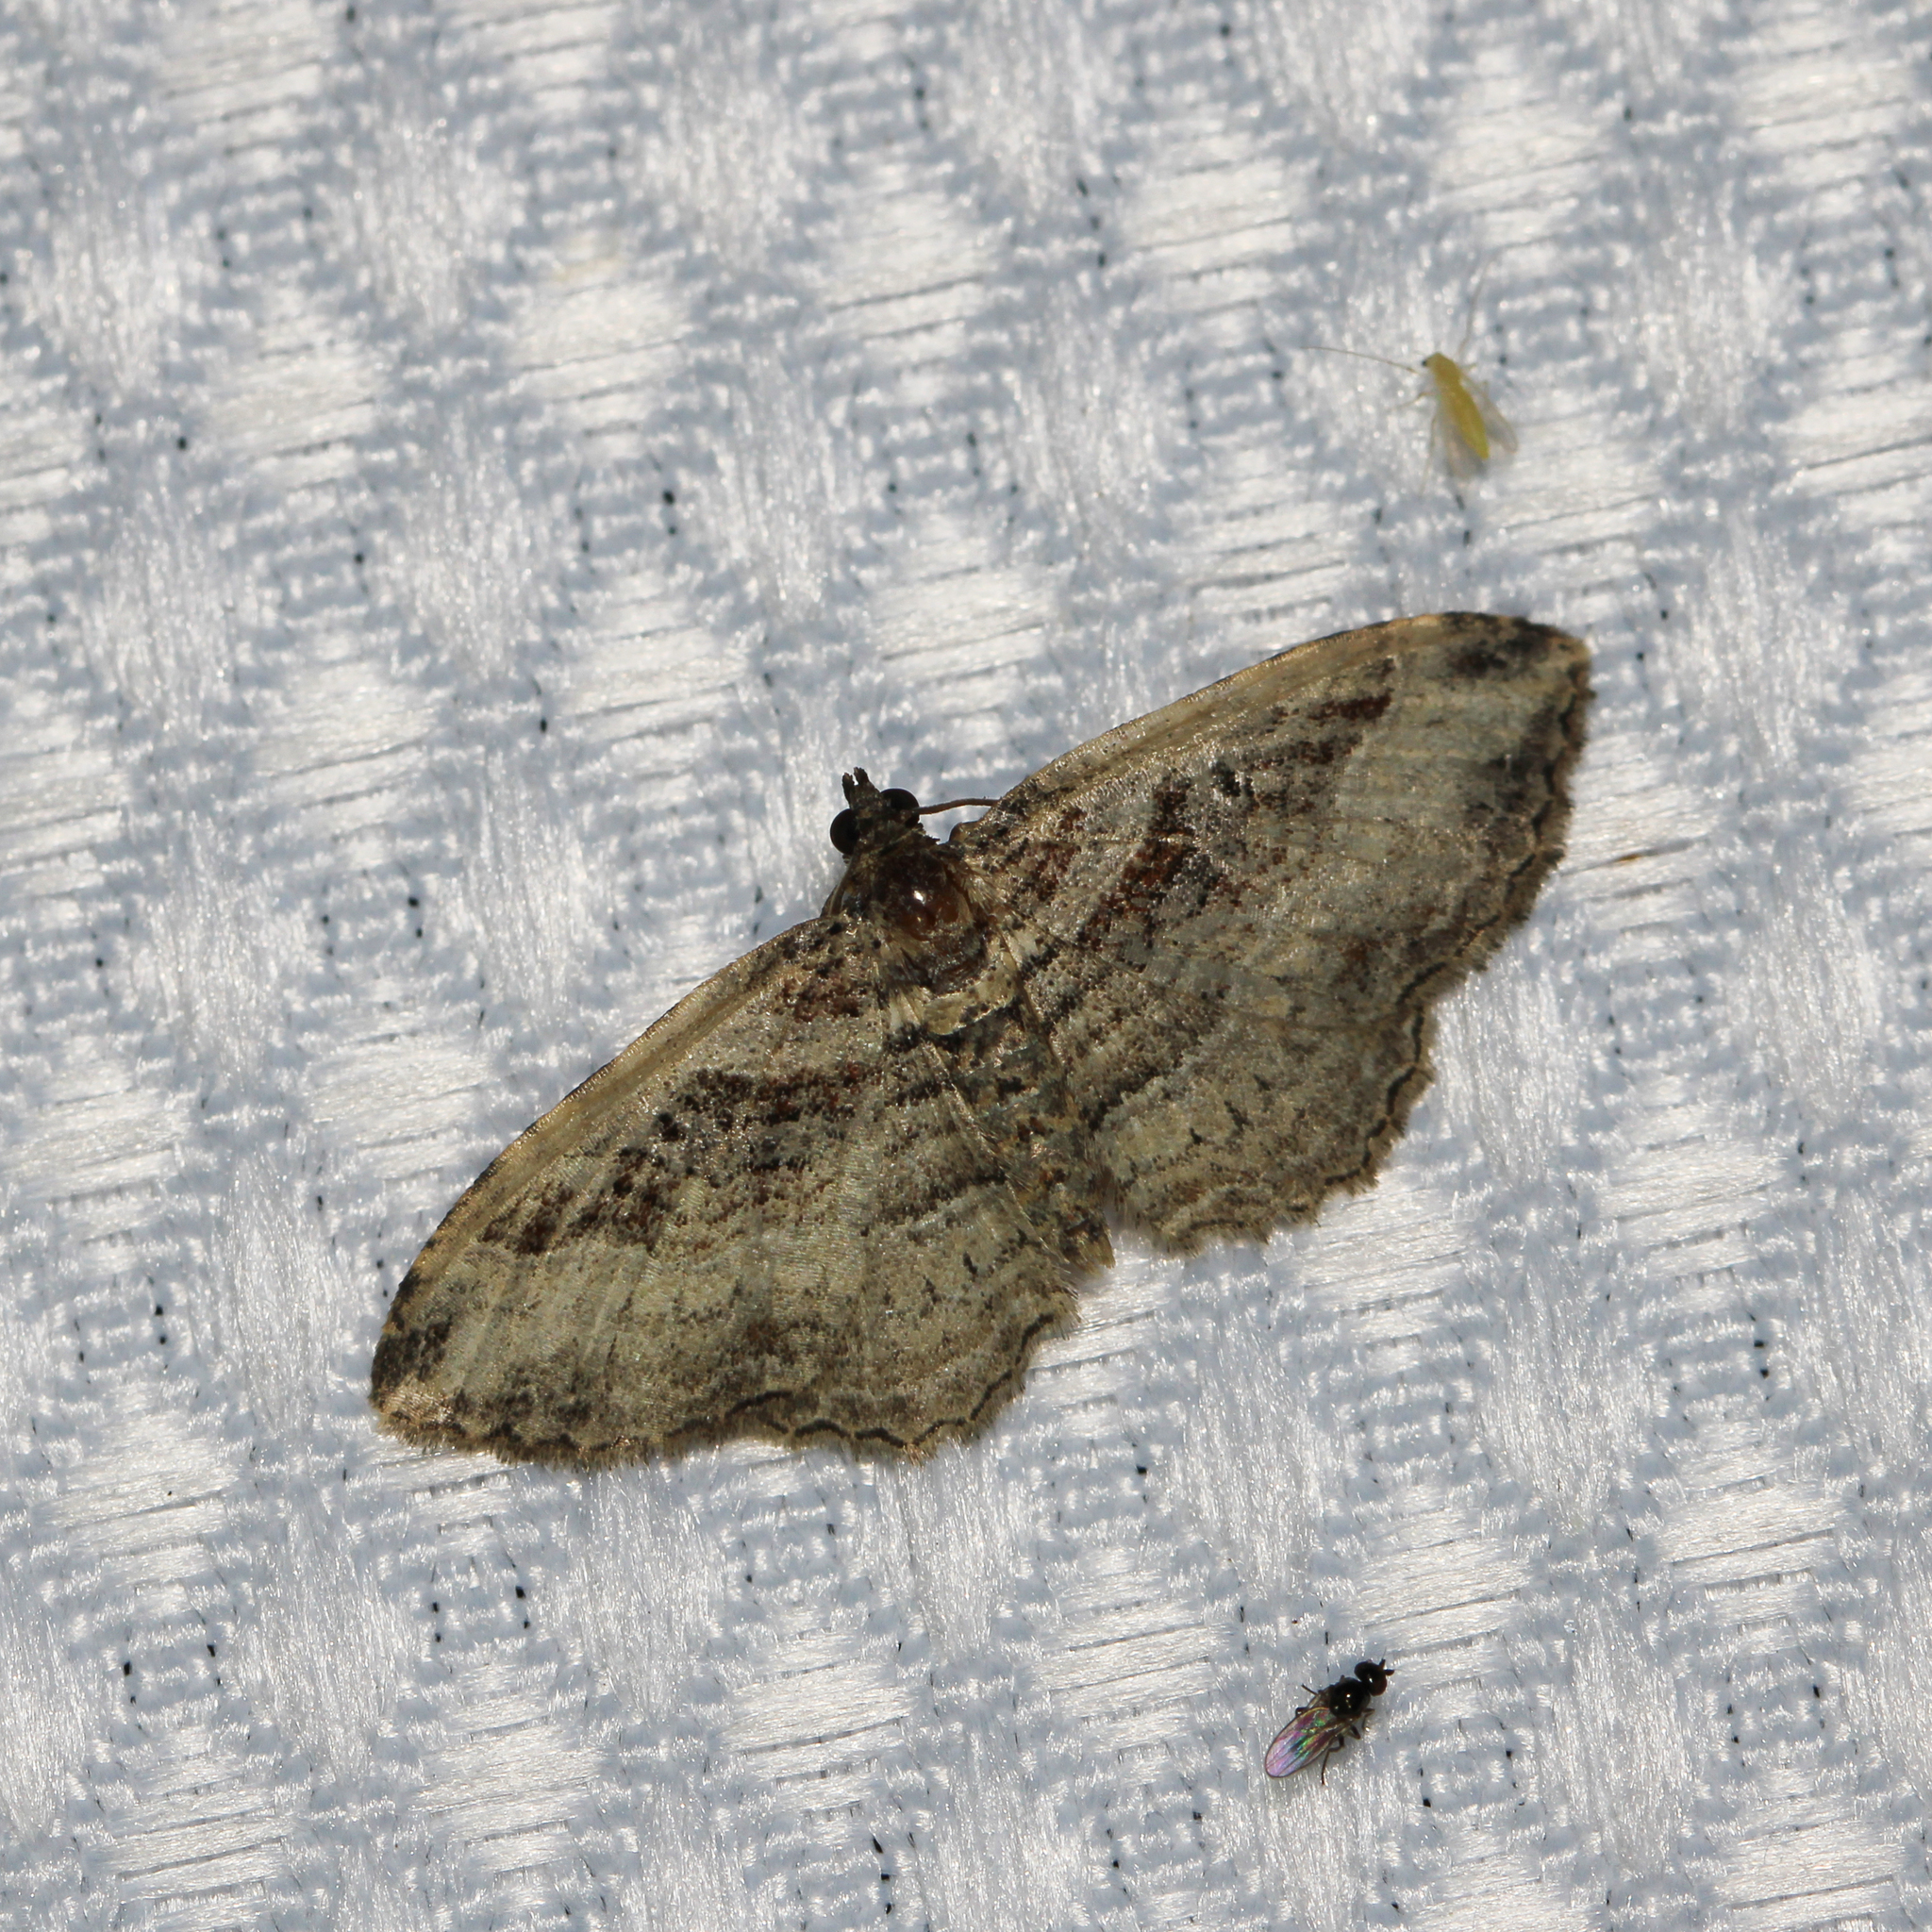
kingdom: Animalia
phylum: Arthropoda
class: Insecta
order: Lepidoptera
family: Geometridae
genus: Costaconvexa
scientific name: Costaconvexa centrostrigaria
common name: Bent-line carpet
